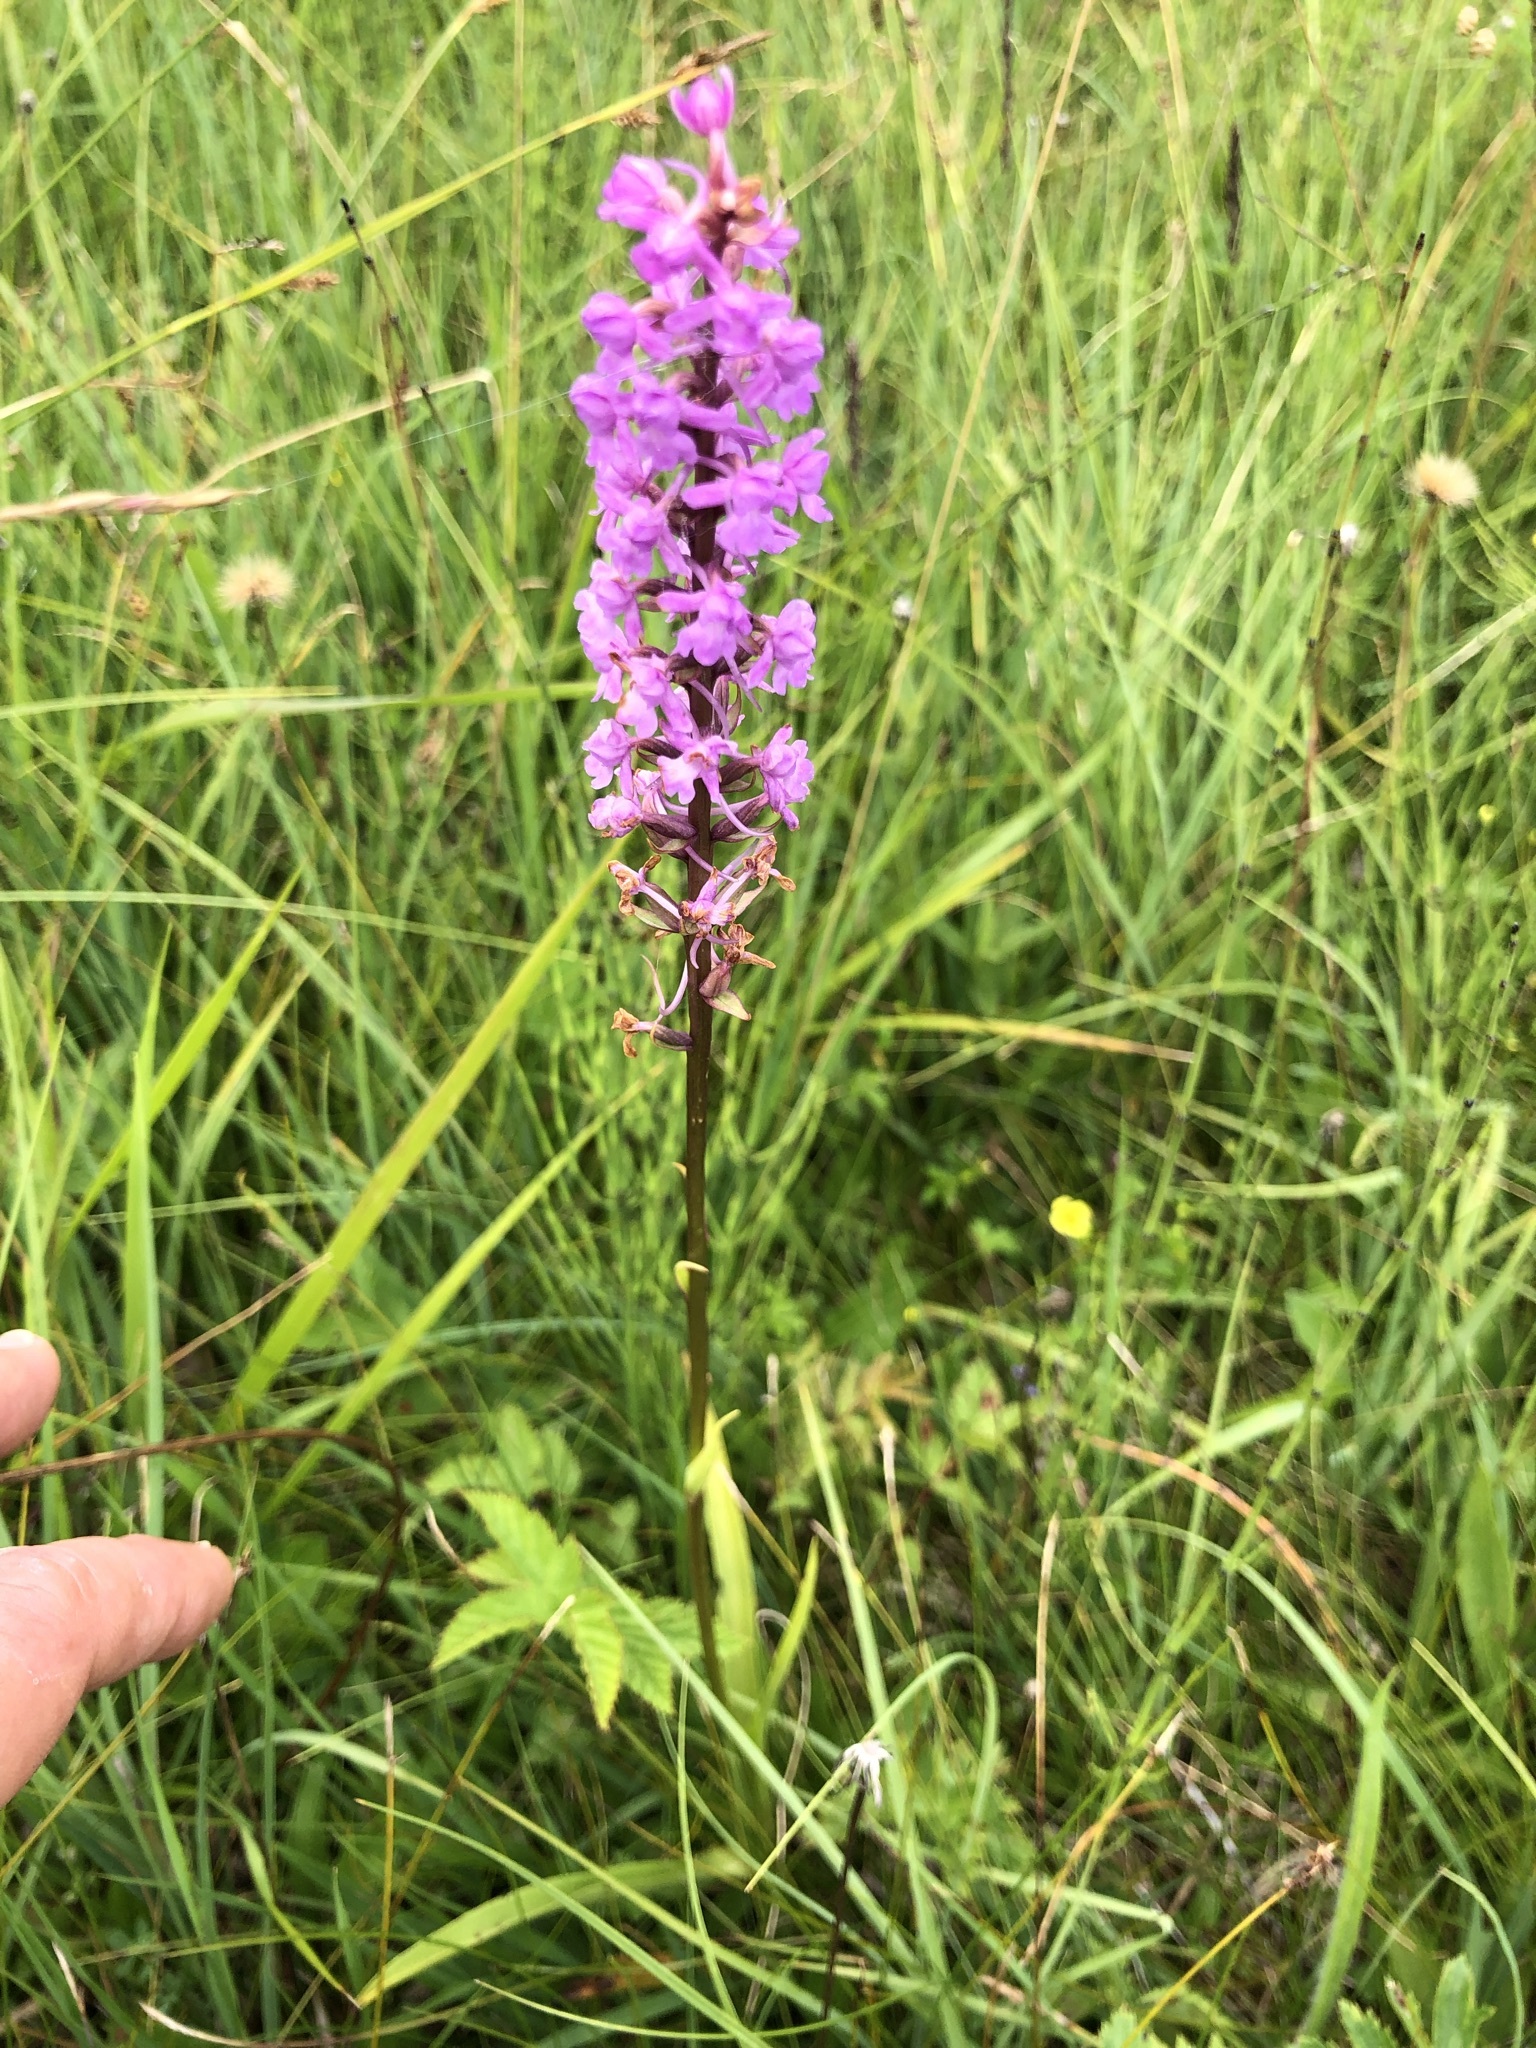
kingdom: Plantae
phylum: Tracheophyta
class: Liliopsida
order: Asparagales
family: Orchidaceae
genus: Gymnadenia
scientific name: Gymnadenia conopsea
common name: Fragrant orchid
